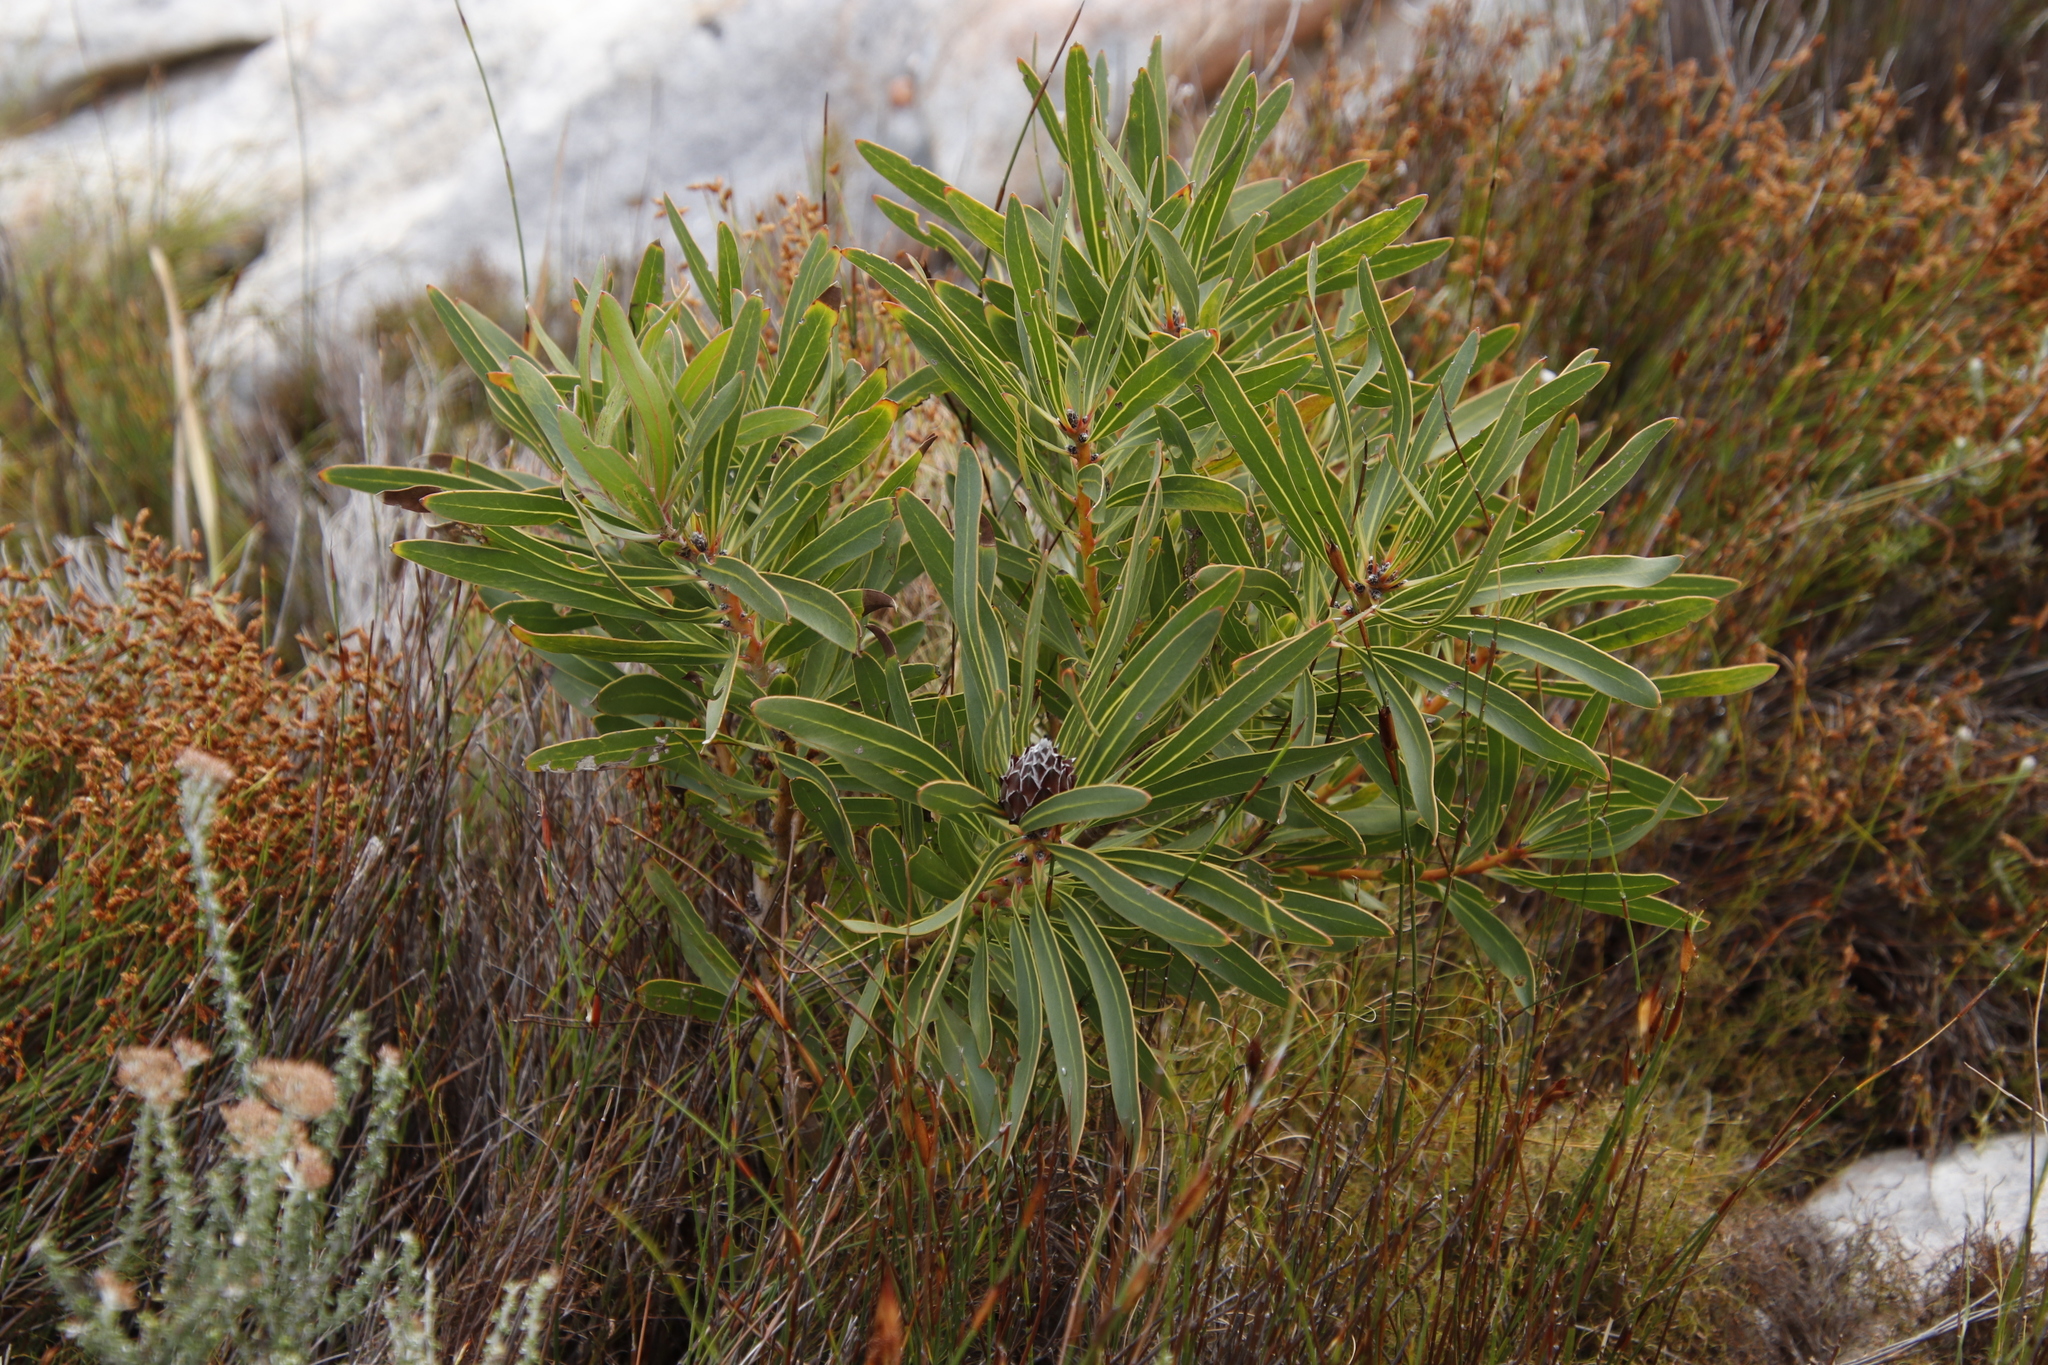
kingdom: Plantae
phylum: Tracheophyta
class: Magnoliopsida
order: Proteales
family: Proteaceae
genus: Protea
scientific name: Protea lepidocarpodendron
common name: Black-bearded protea
